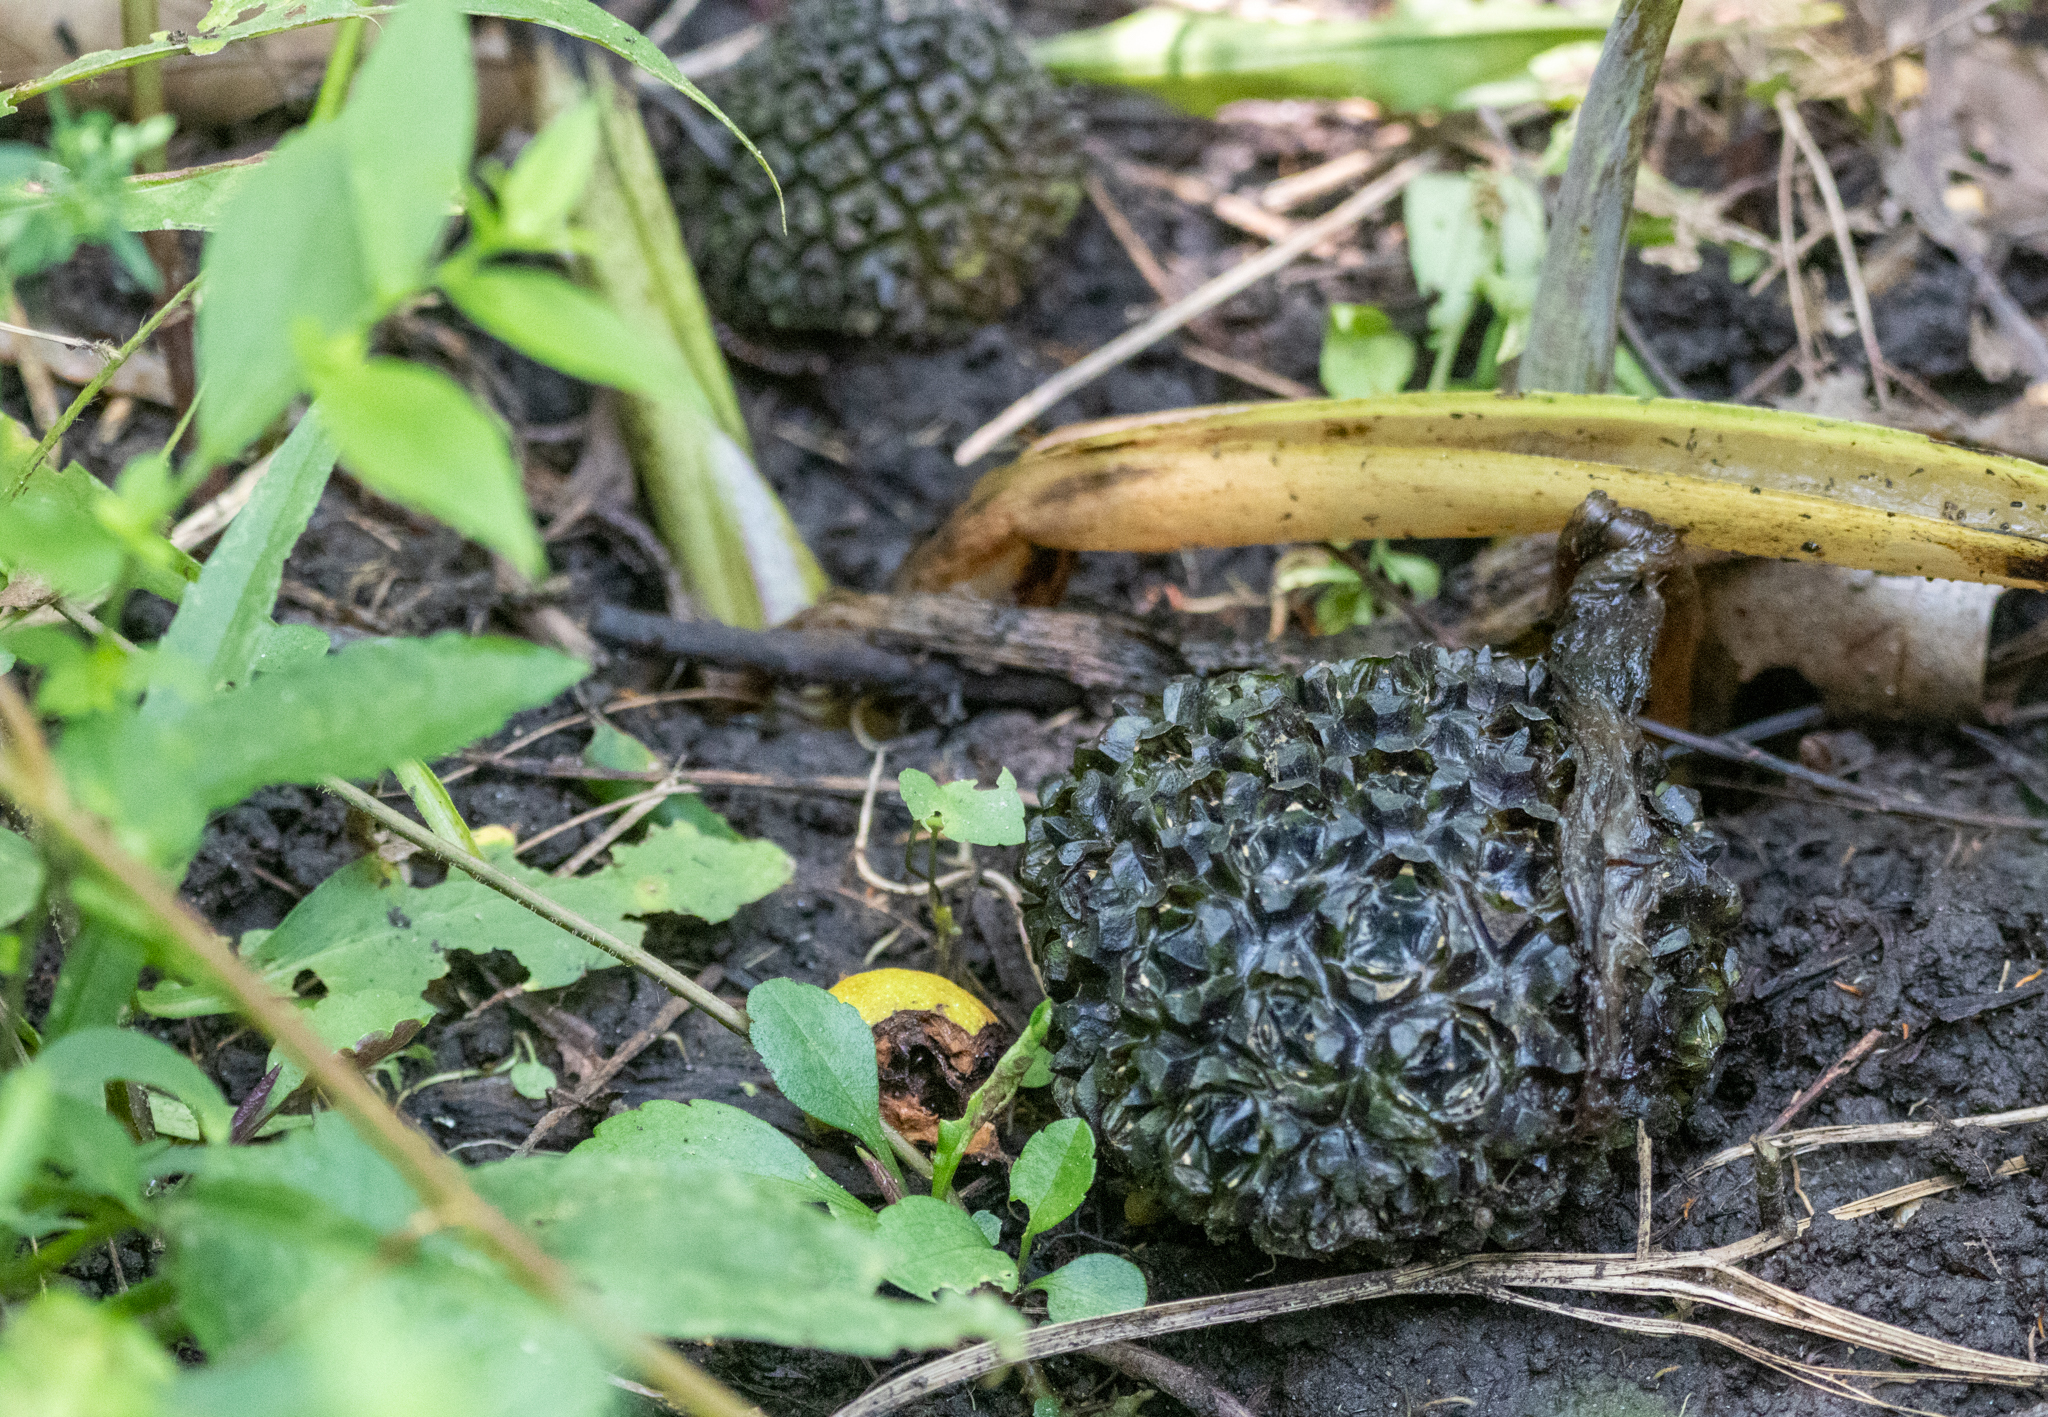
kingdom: Plantae
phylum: Tracheophyta
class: Liliopsida
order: Alismatales
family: Araceae
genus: Symplocarpus
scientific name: Symplocarpus foetidus
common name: Eastern skunk cabbage
